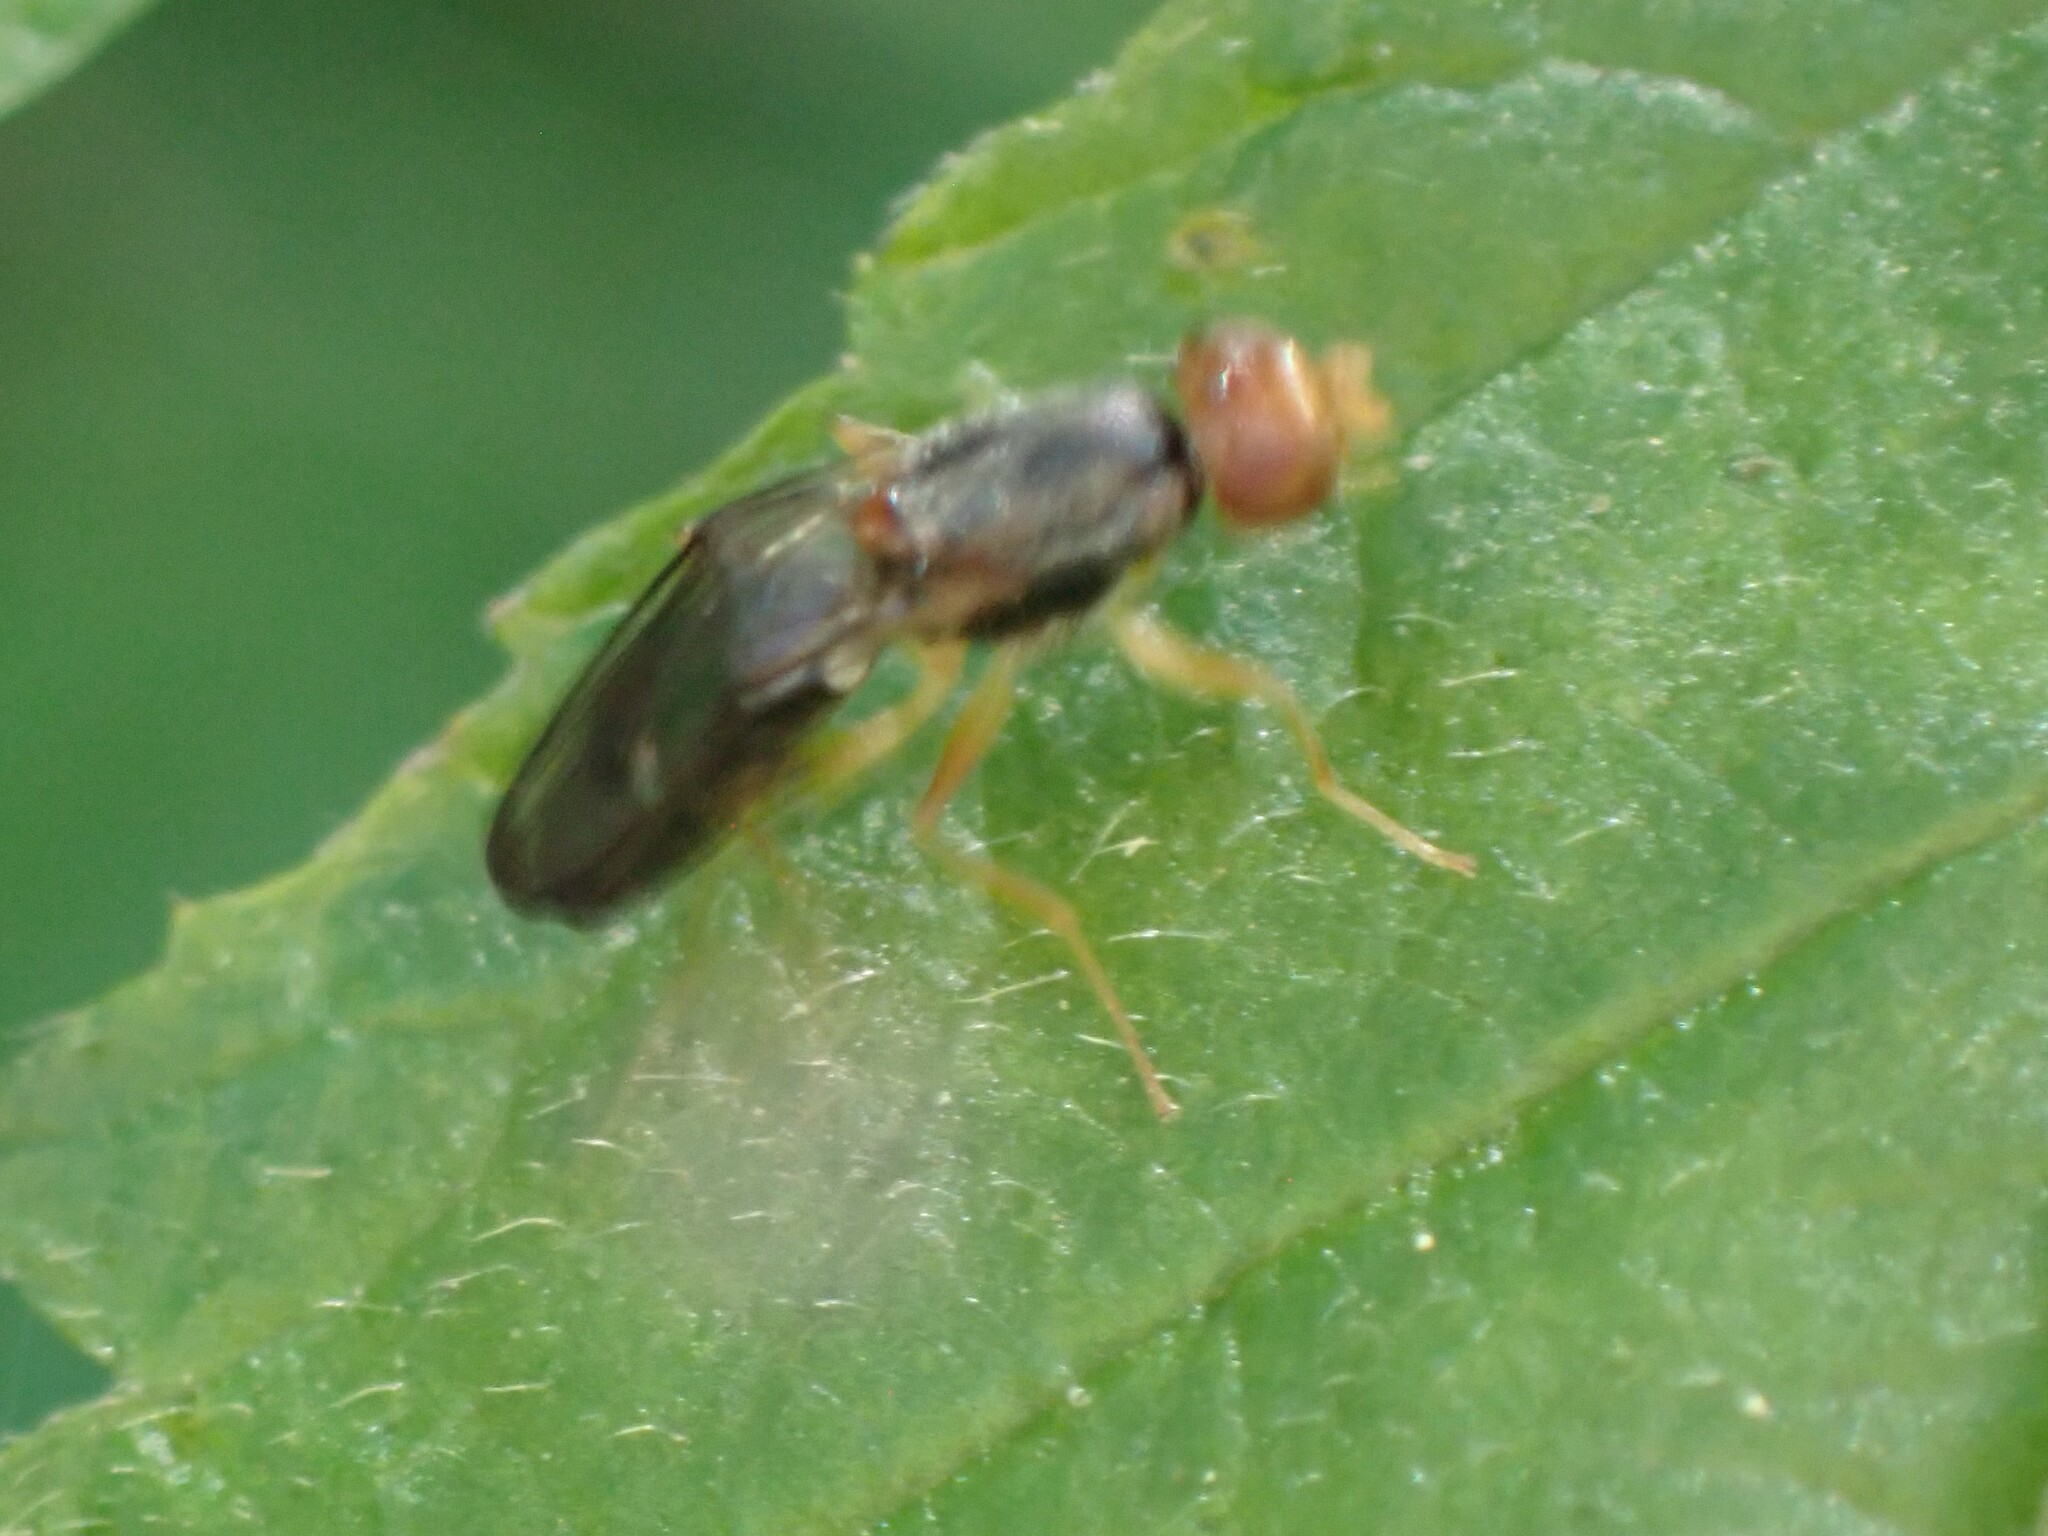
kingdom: Animalia
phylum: Arthropoda
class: Insecta
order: Diptera
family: Psilidae
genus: Chyliza
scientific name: Chyliza notata
